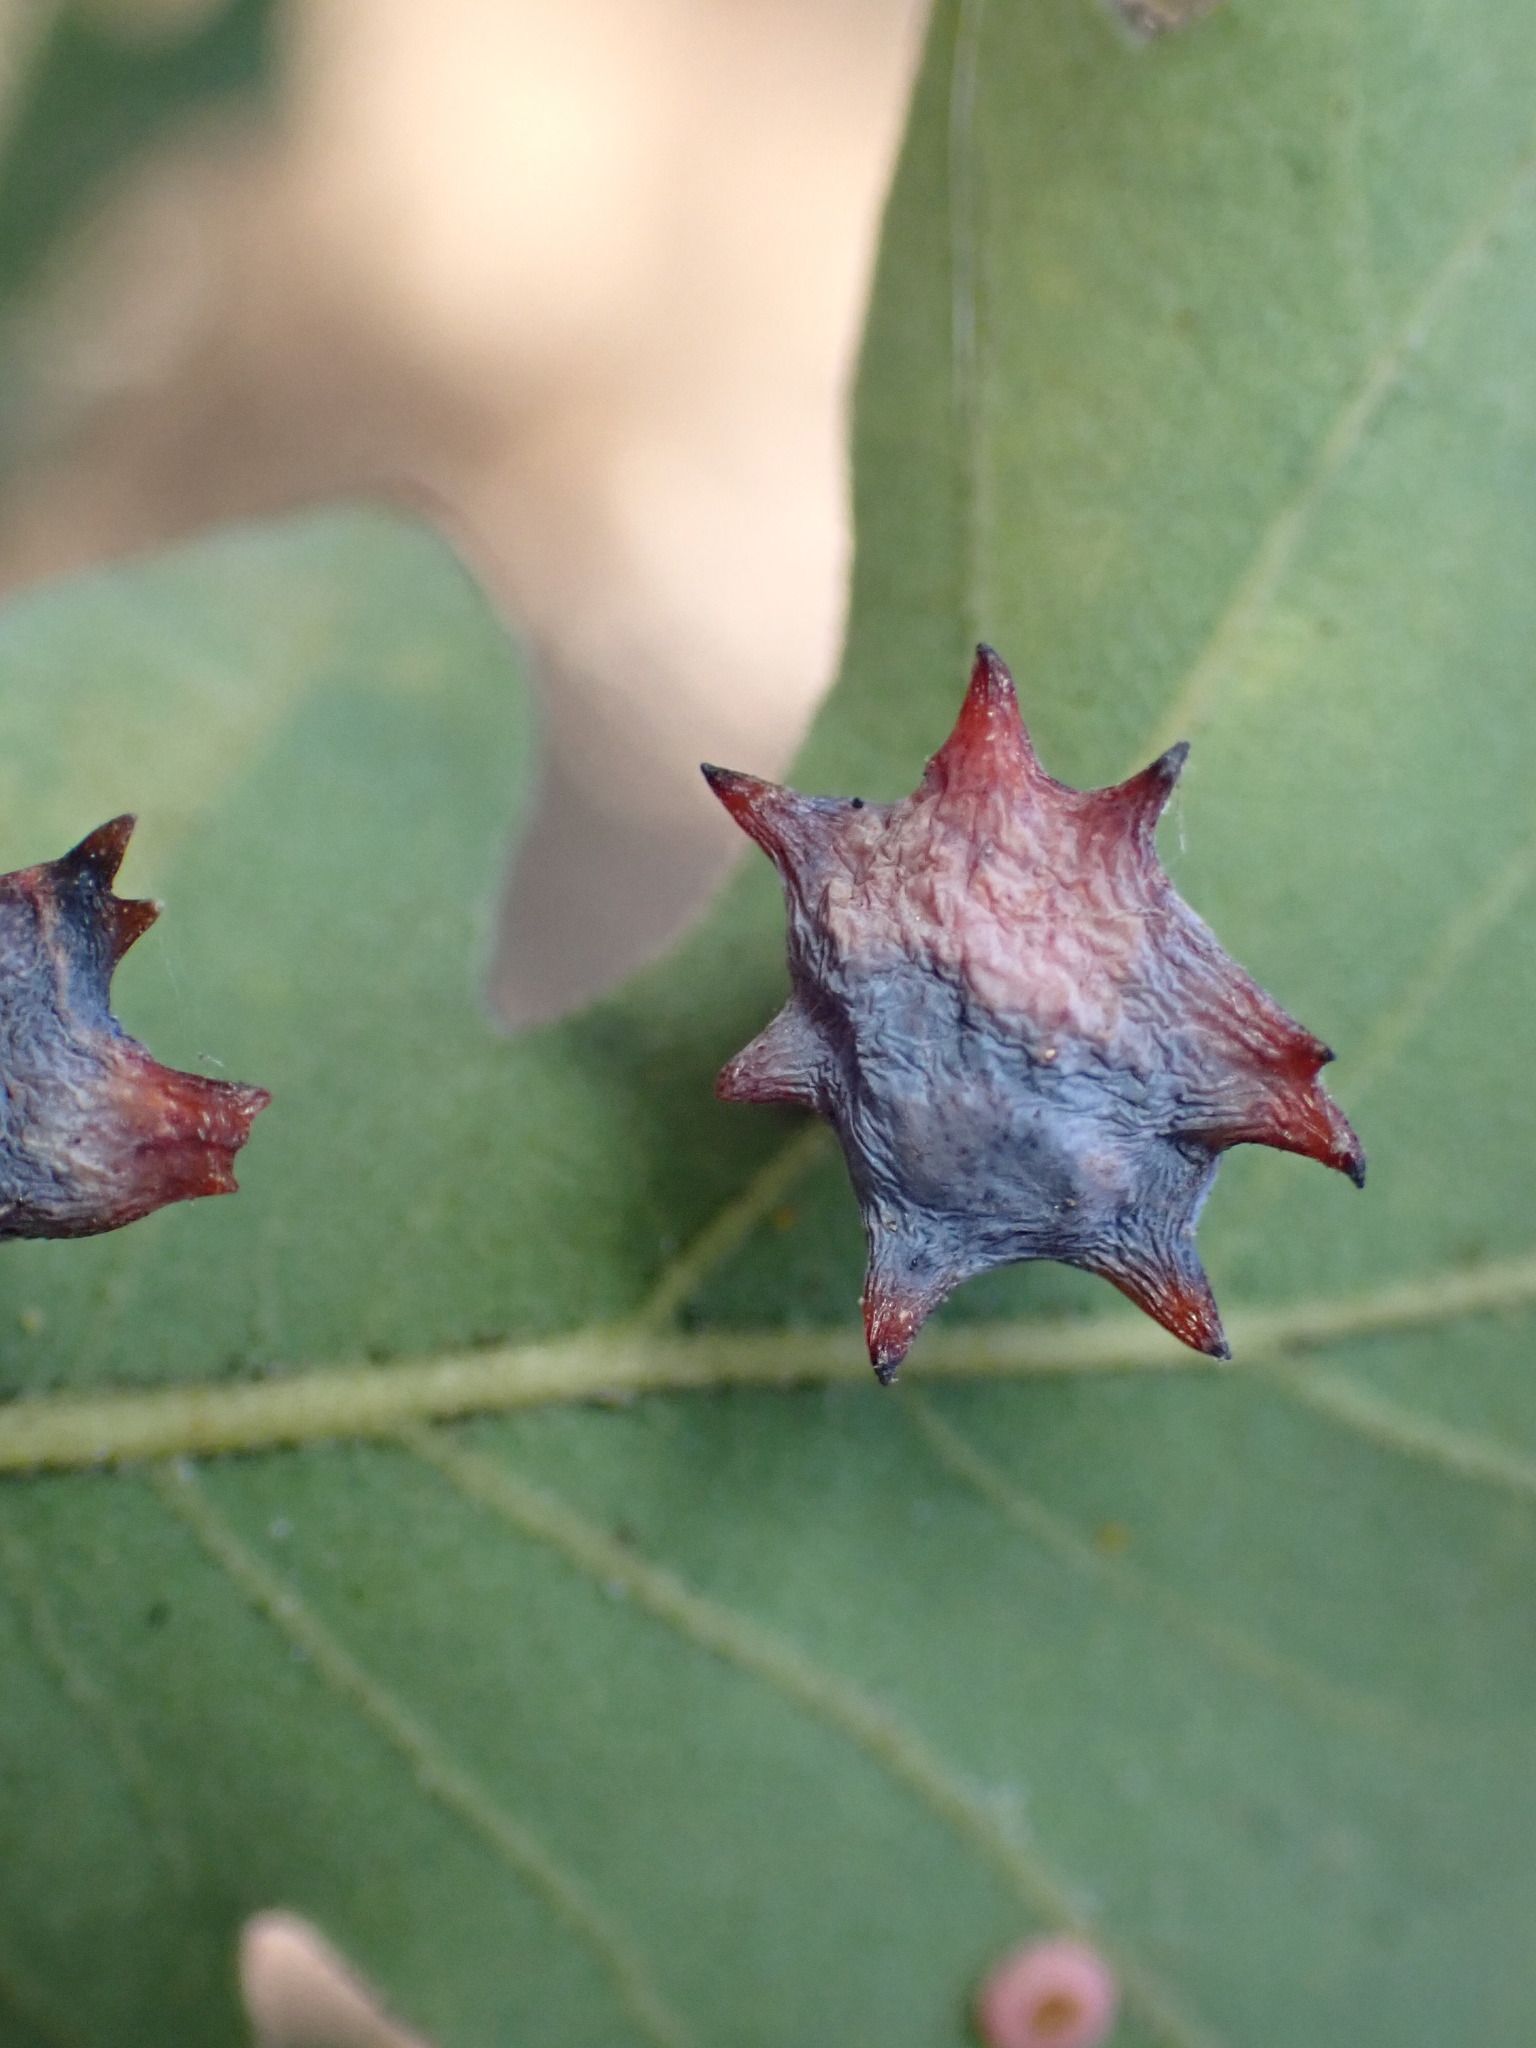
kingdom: Animalia
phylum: Arthropoda
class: Insecta
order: Hymenoptera
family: Cynipidae
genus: Cynips
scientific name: Cynips douglasi
